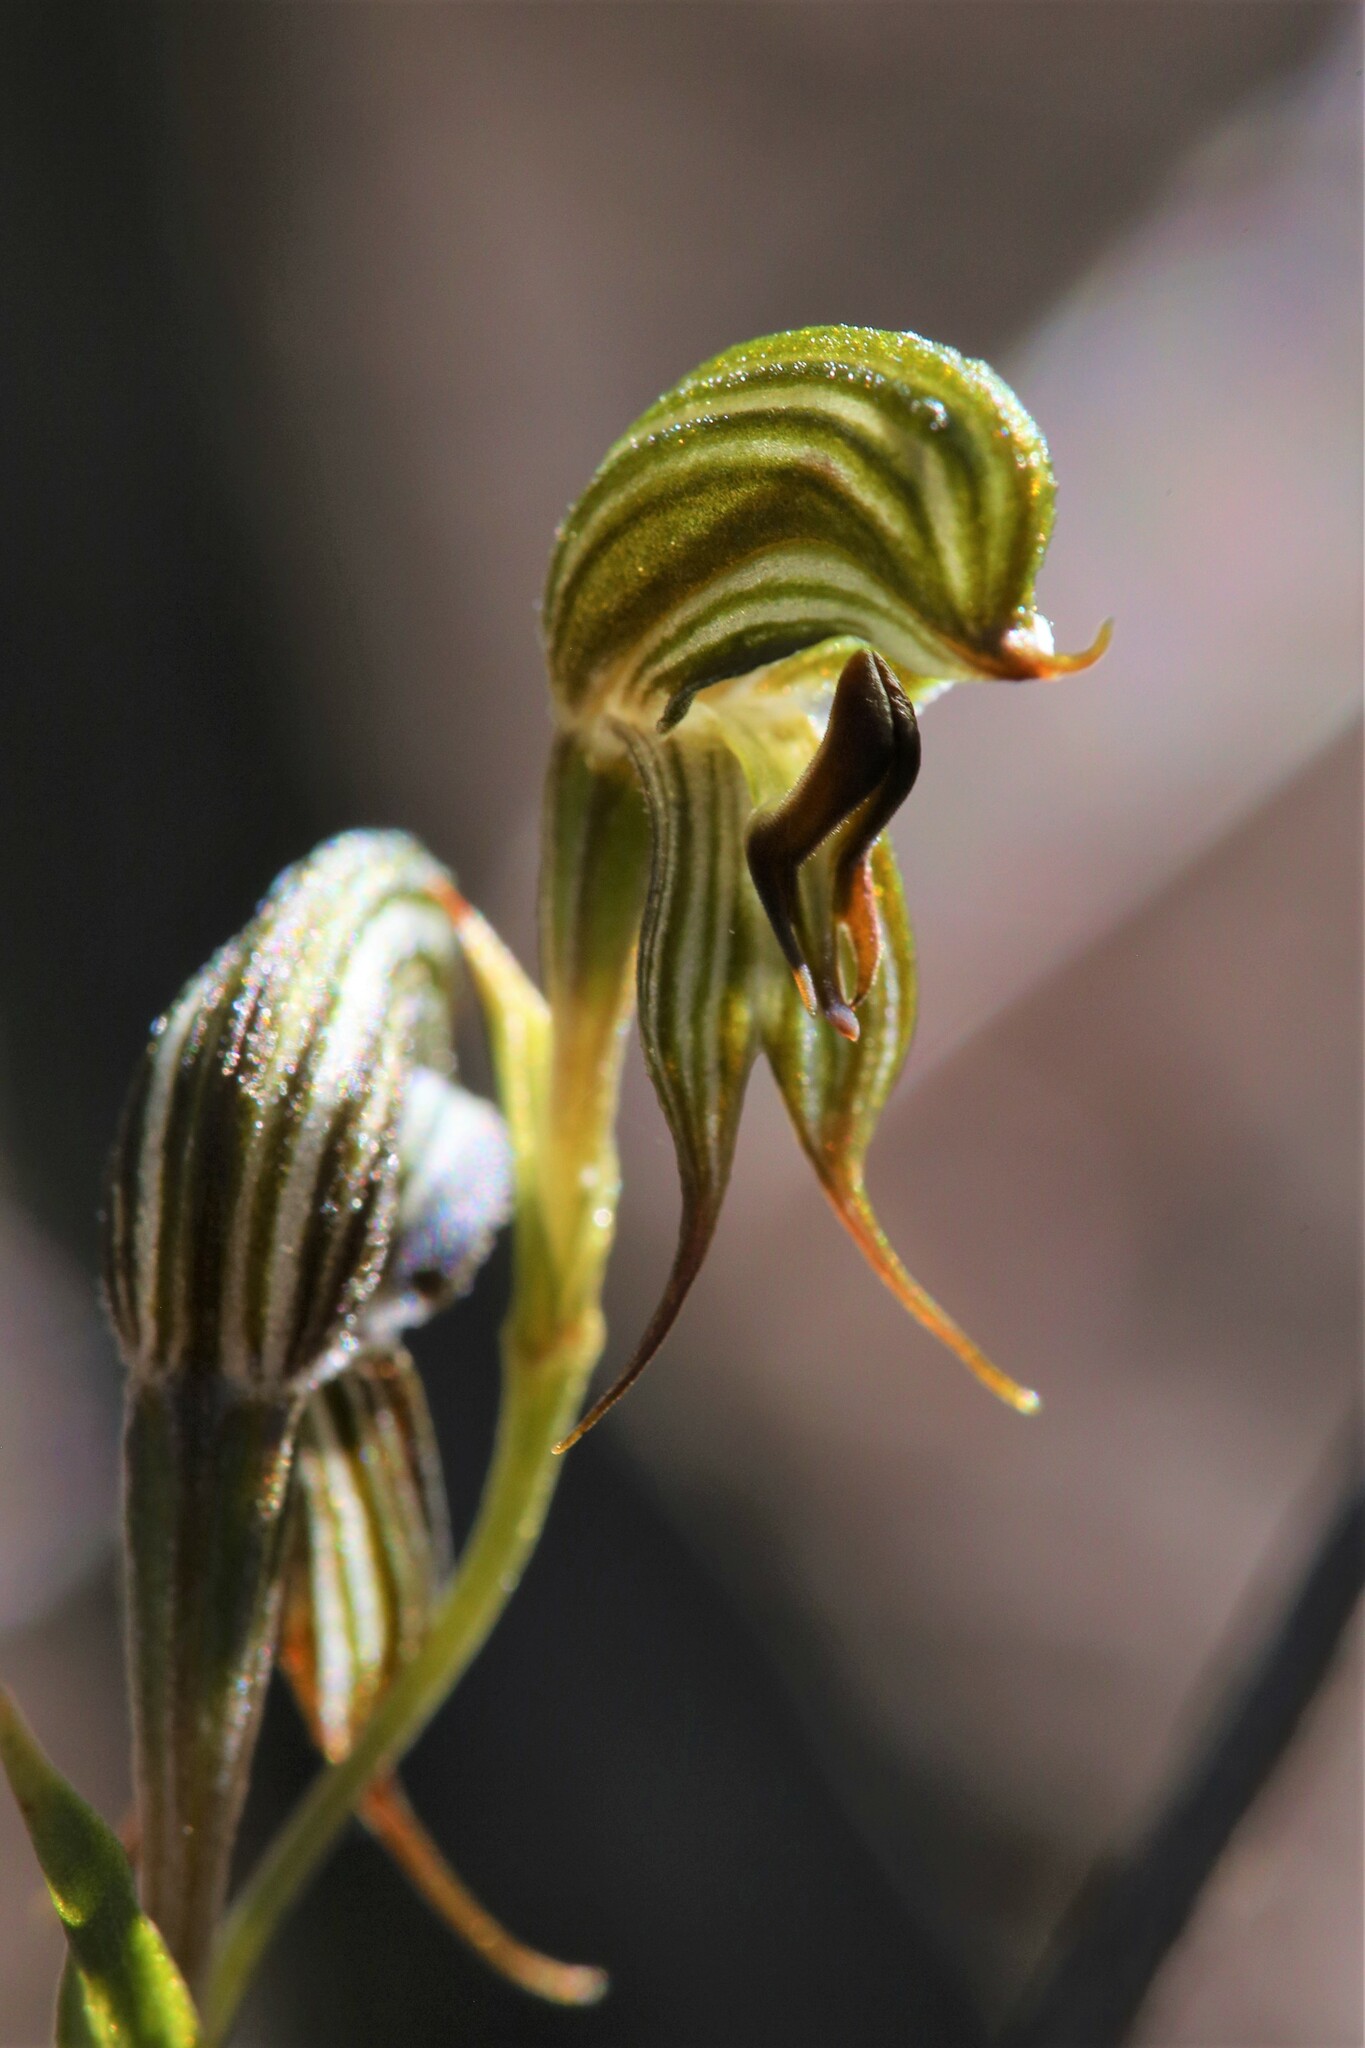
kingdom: Plantae
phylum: Tracheophyta
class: Liliopsida
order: Asparagales
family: Orchidaceae
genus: Pterostylis
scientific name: Pterostylis sargentii
